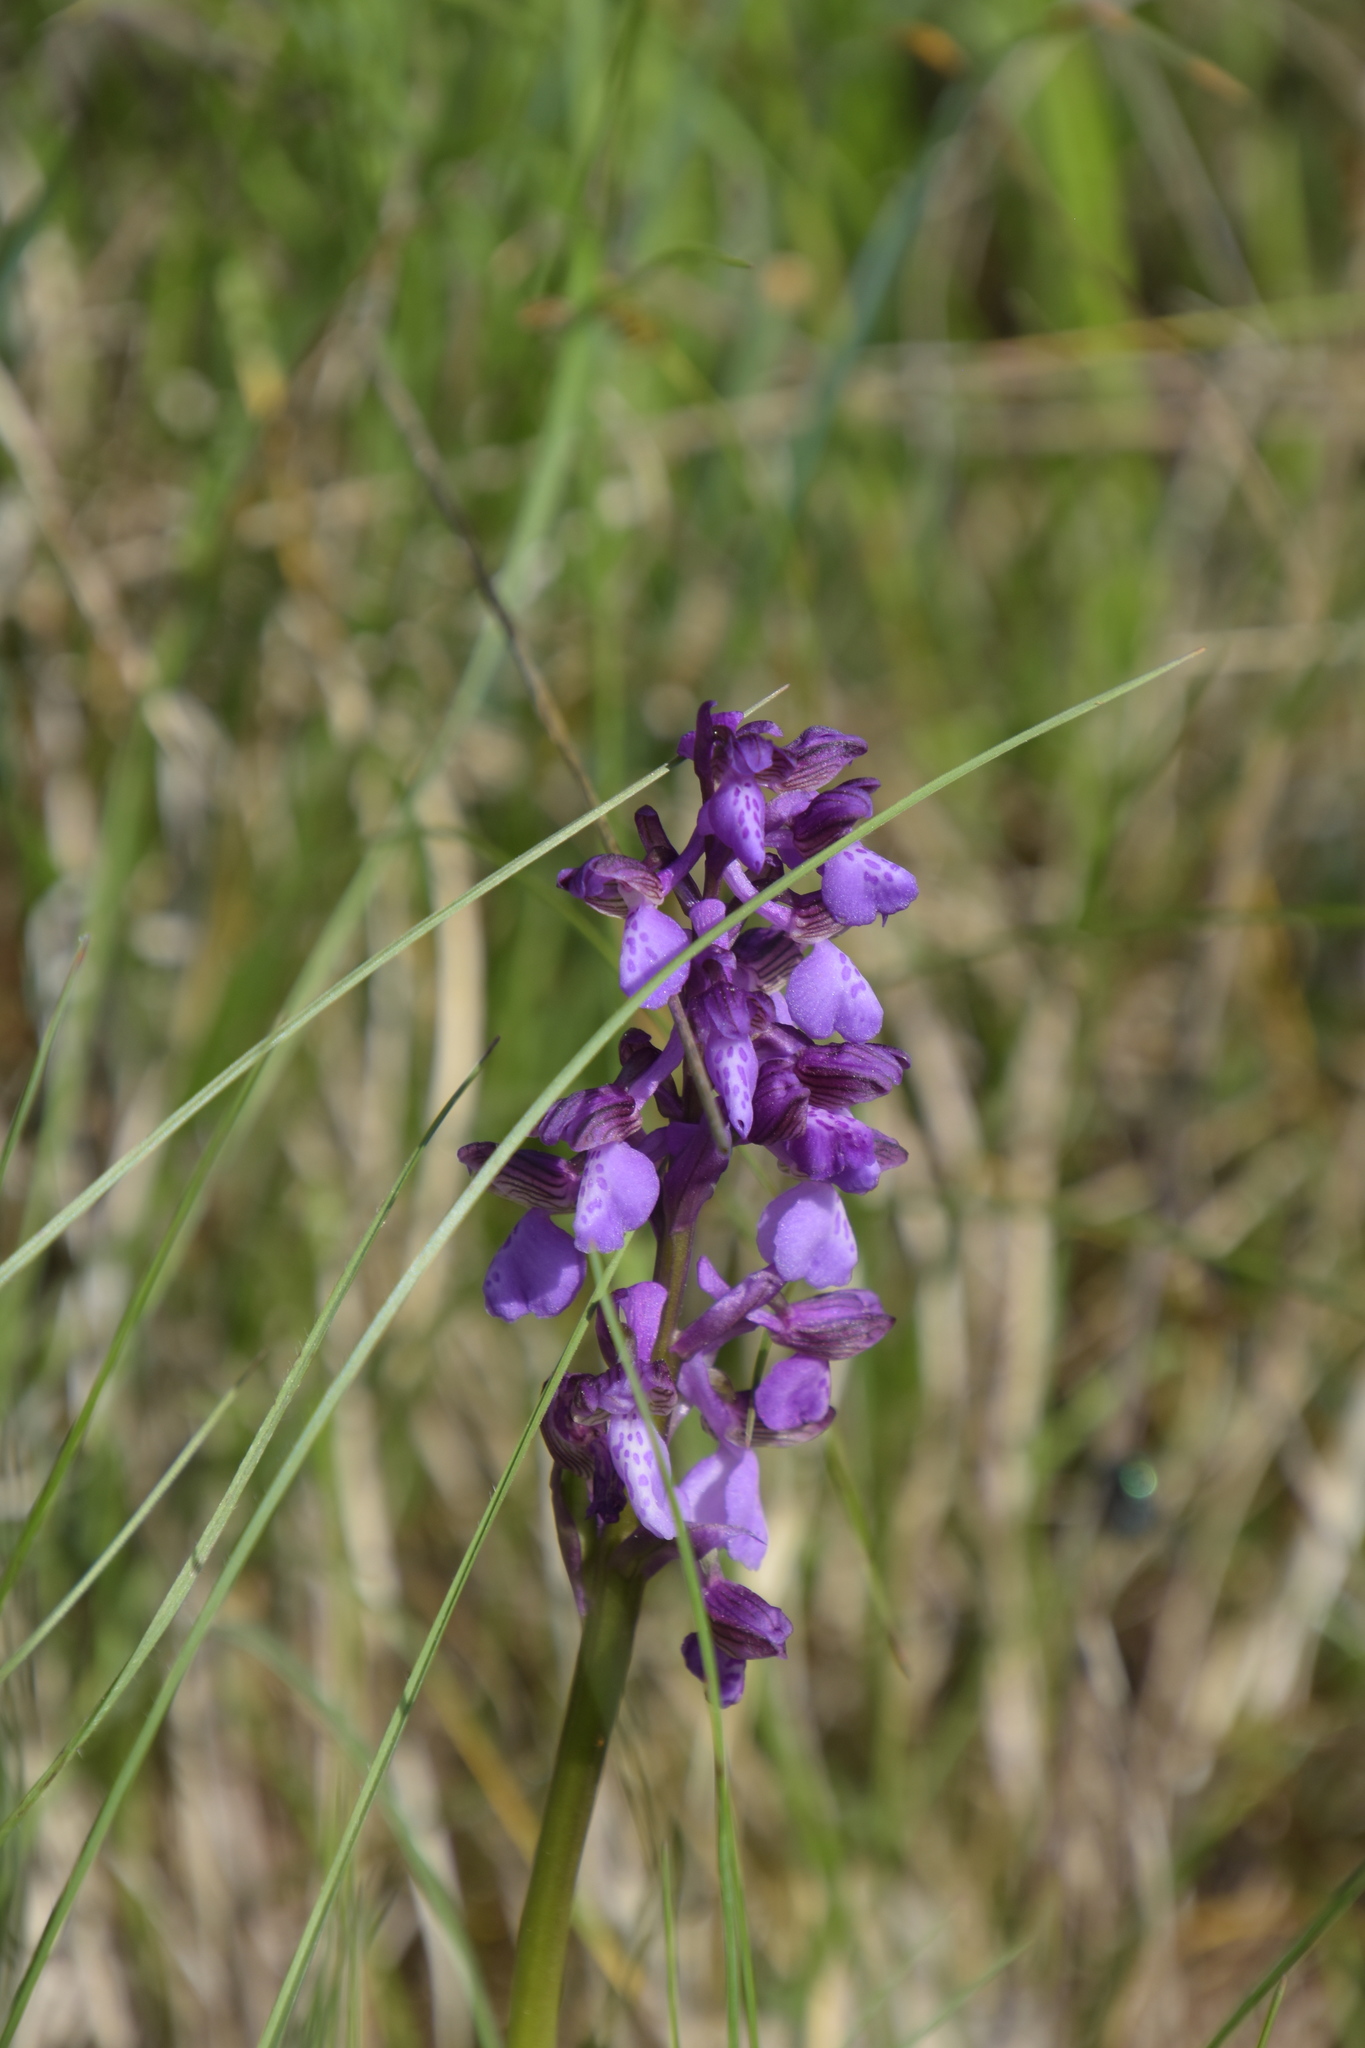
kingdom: Plantae
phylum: Tracheophyta
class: Liliopsida
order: Asparagales
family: Orchidaceae
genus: Anacamptis
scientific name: Anacamptis morio
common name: Green-winged orchid
